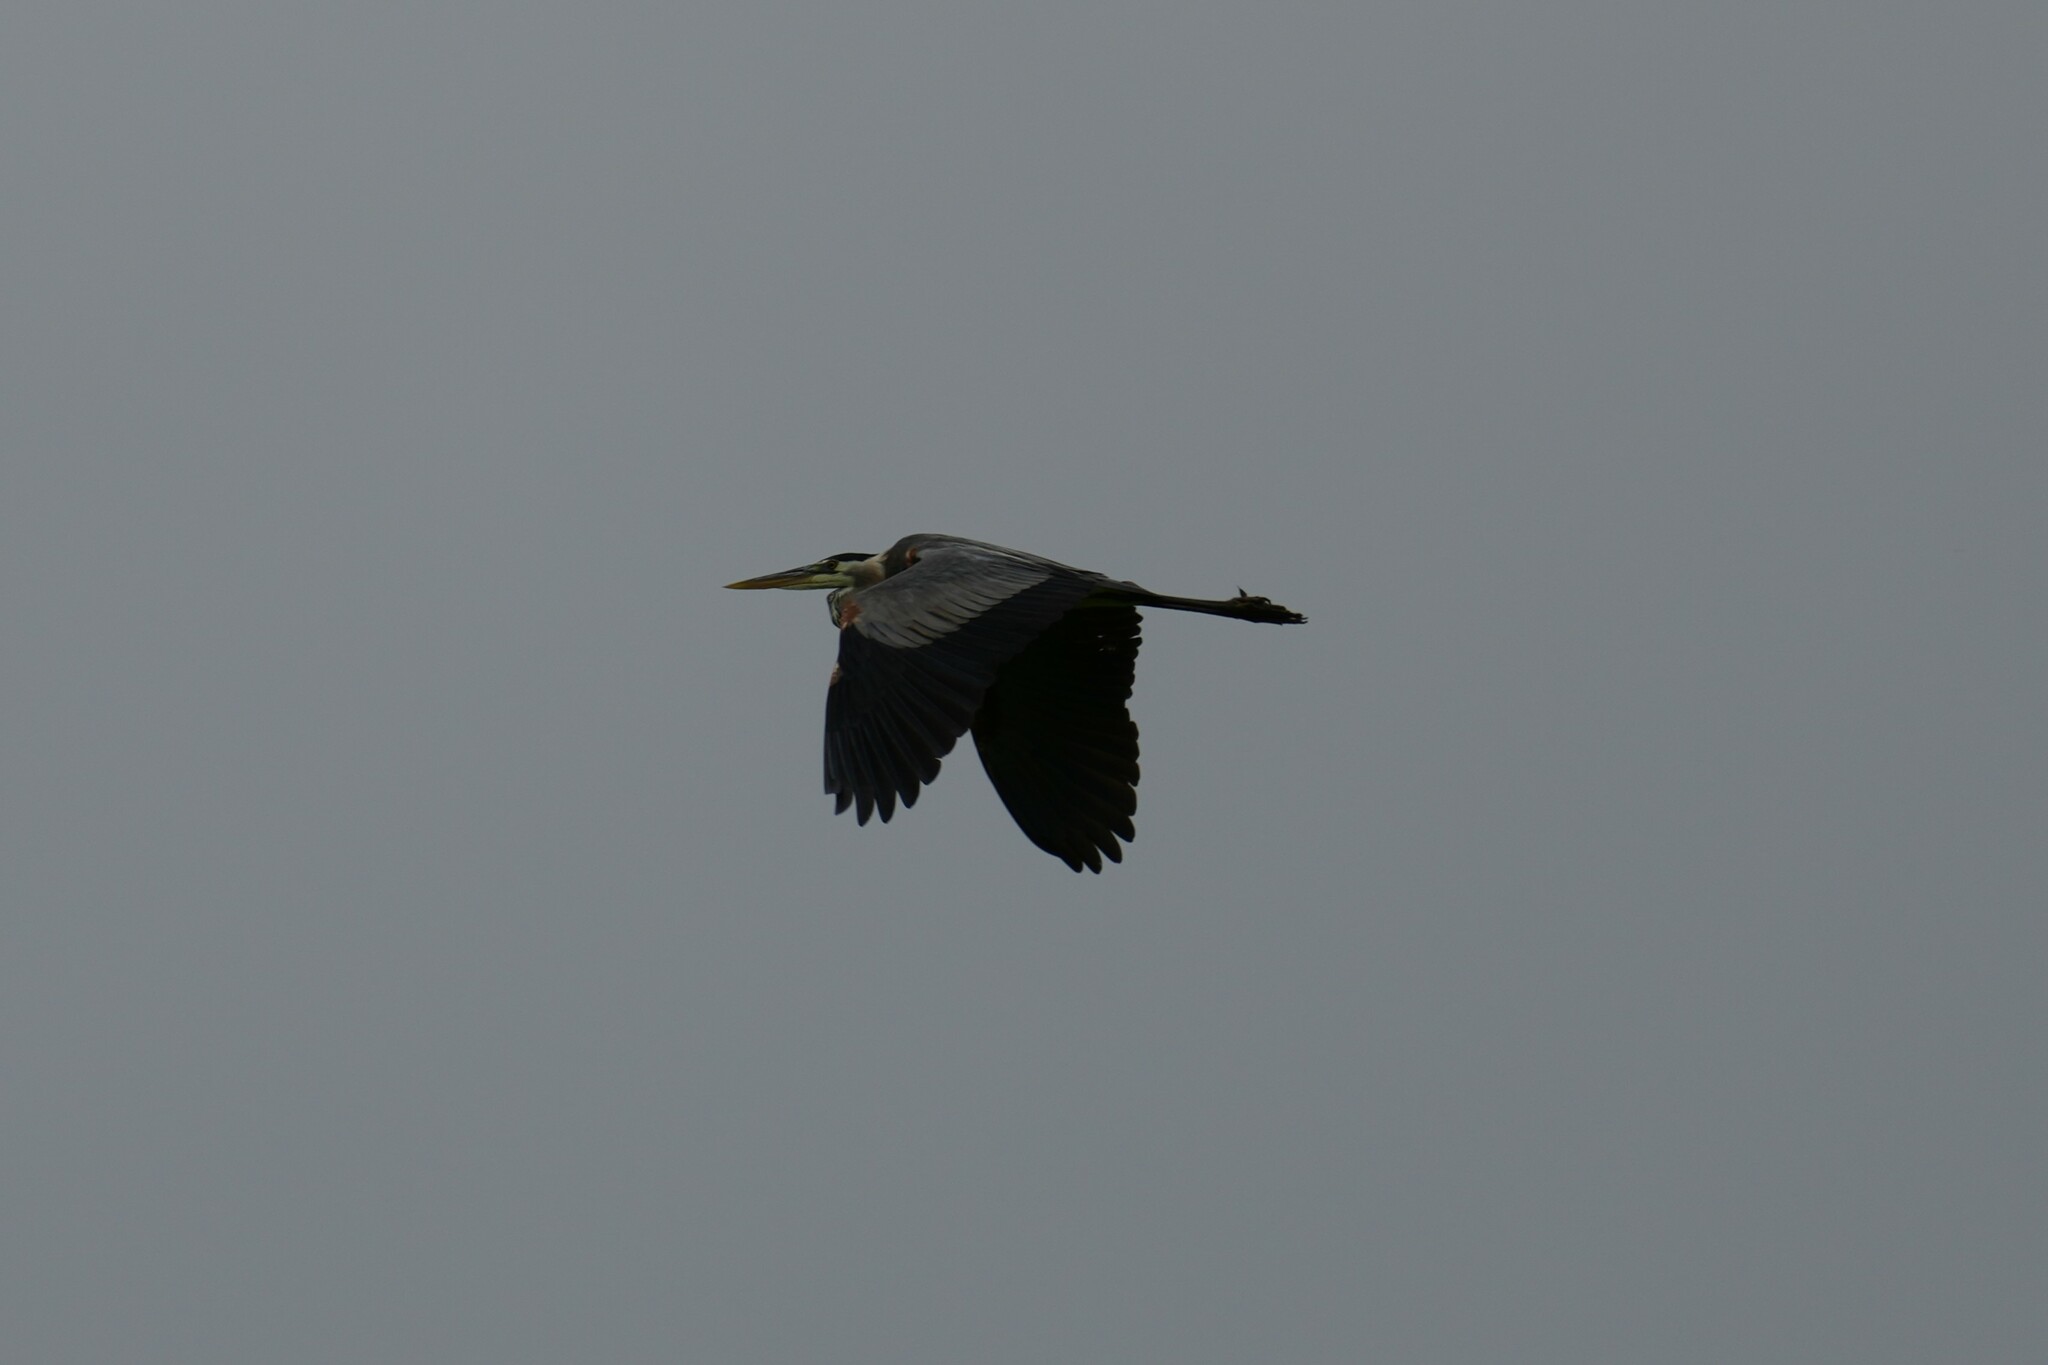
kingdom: Animalia
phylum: Chordata
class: Aves
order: Pelecaniformes
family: Ardeidae
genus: Ardea
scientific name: Ardea herodias
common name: Great blue heron
